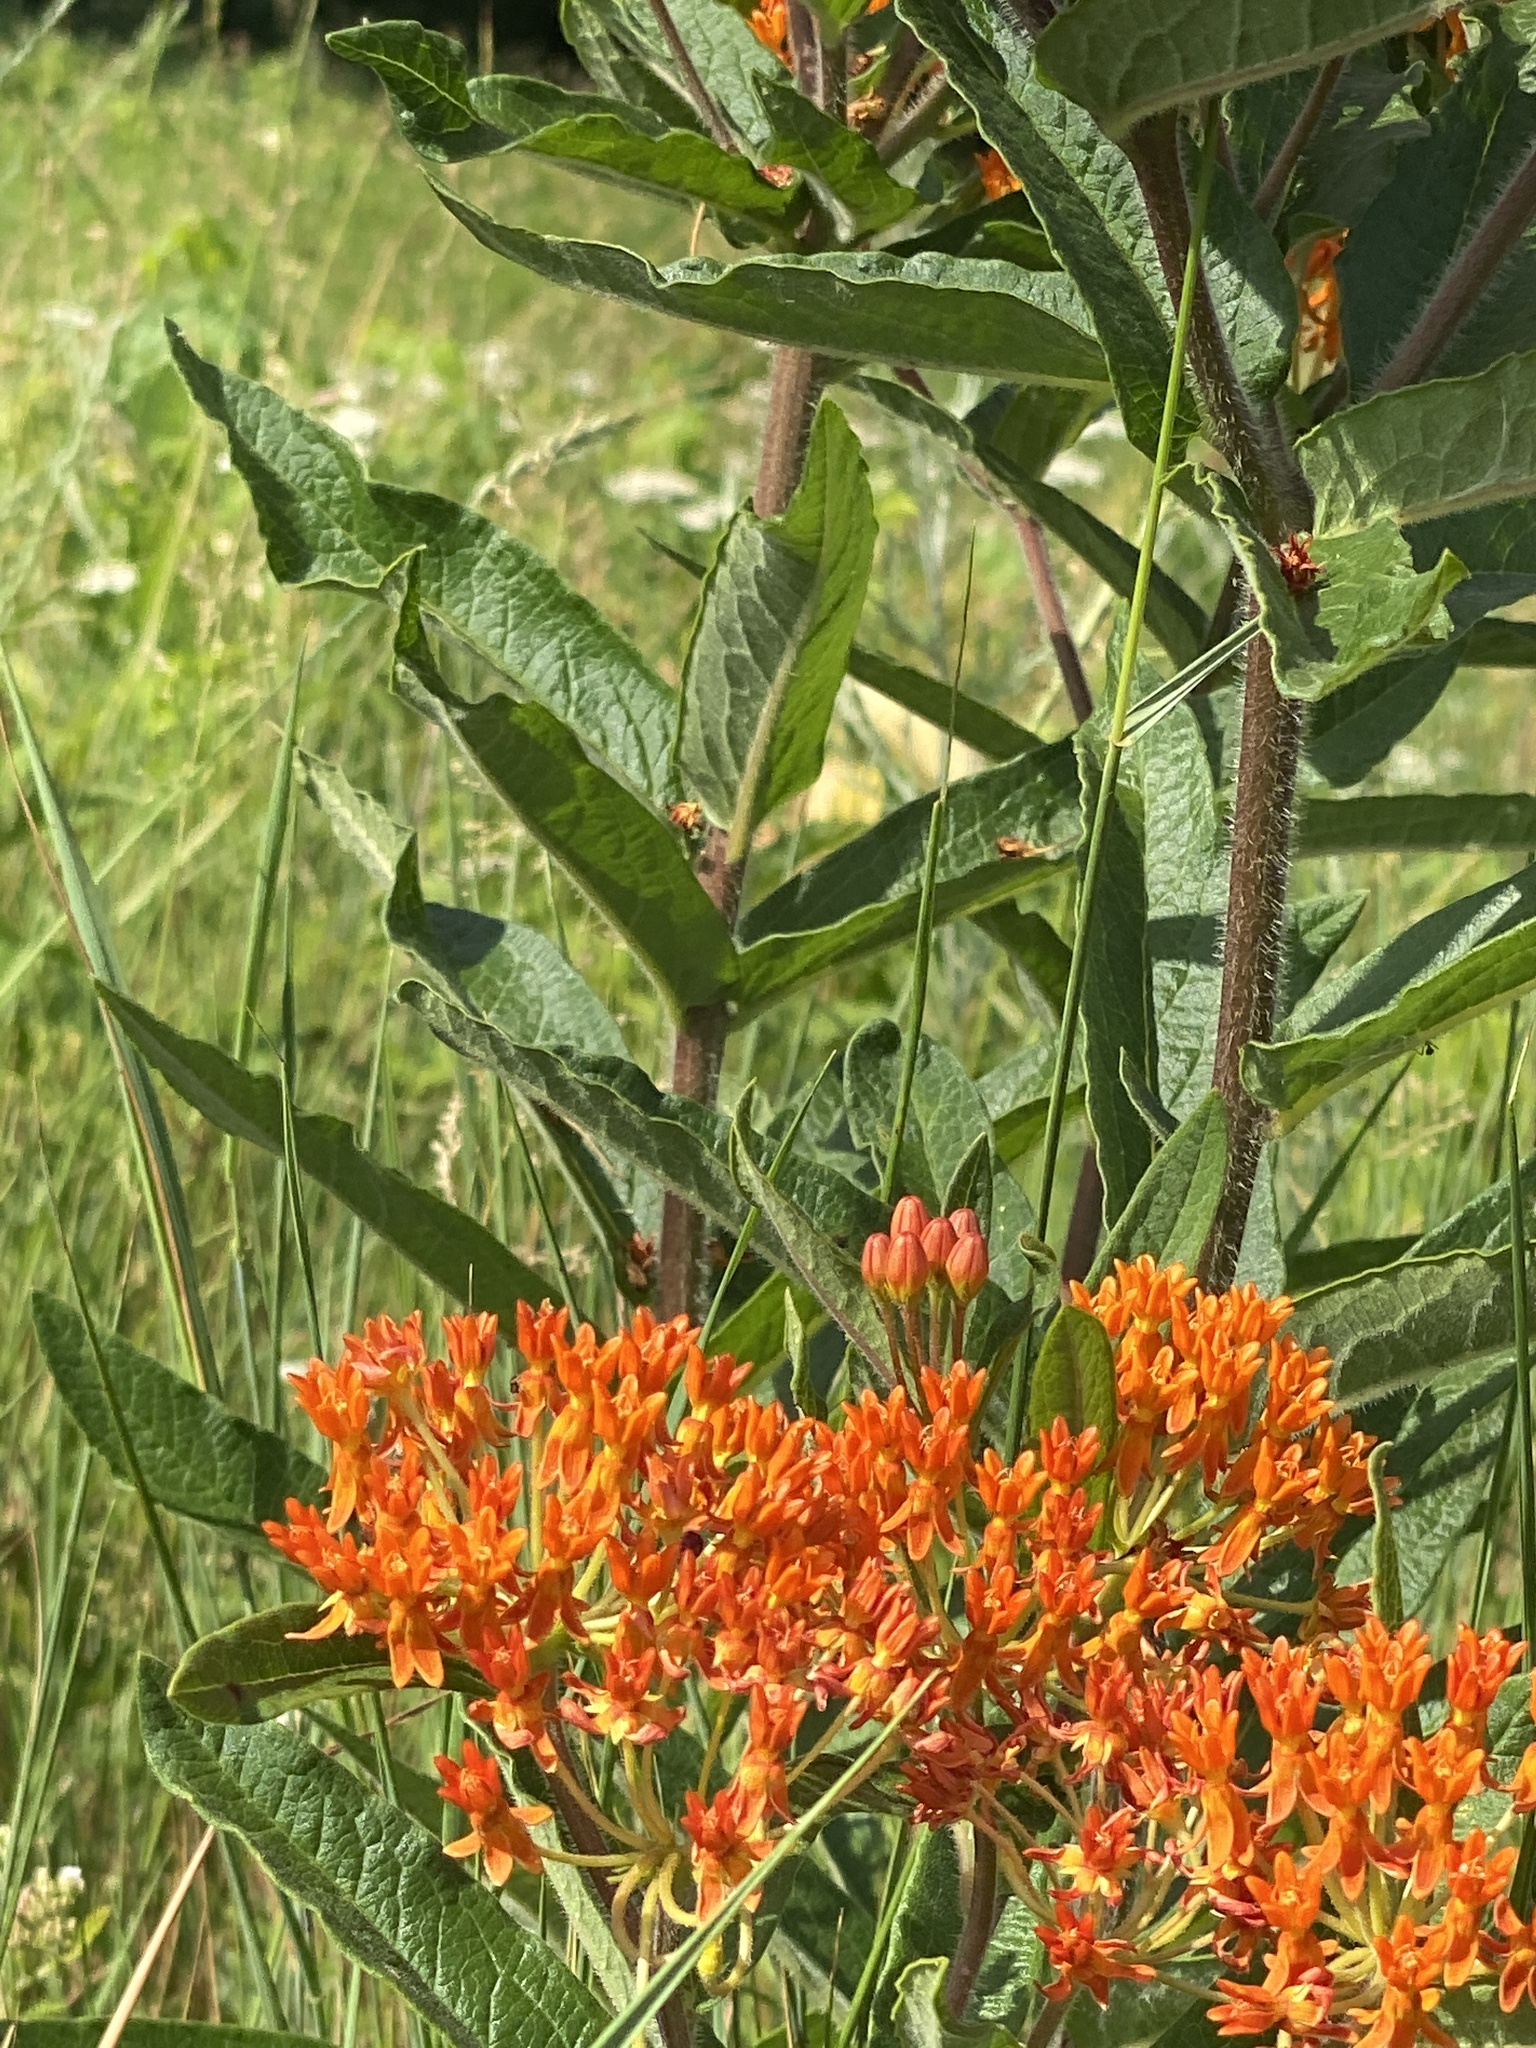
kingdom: Plantae
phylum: Tracheophyta
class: Magnoliopsida
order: Gentianales
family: Apocynaceae
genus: Asclepias
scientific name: Asclepias tuberosa
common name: Butterfly milkweed
